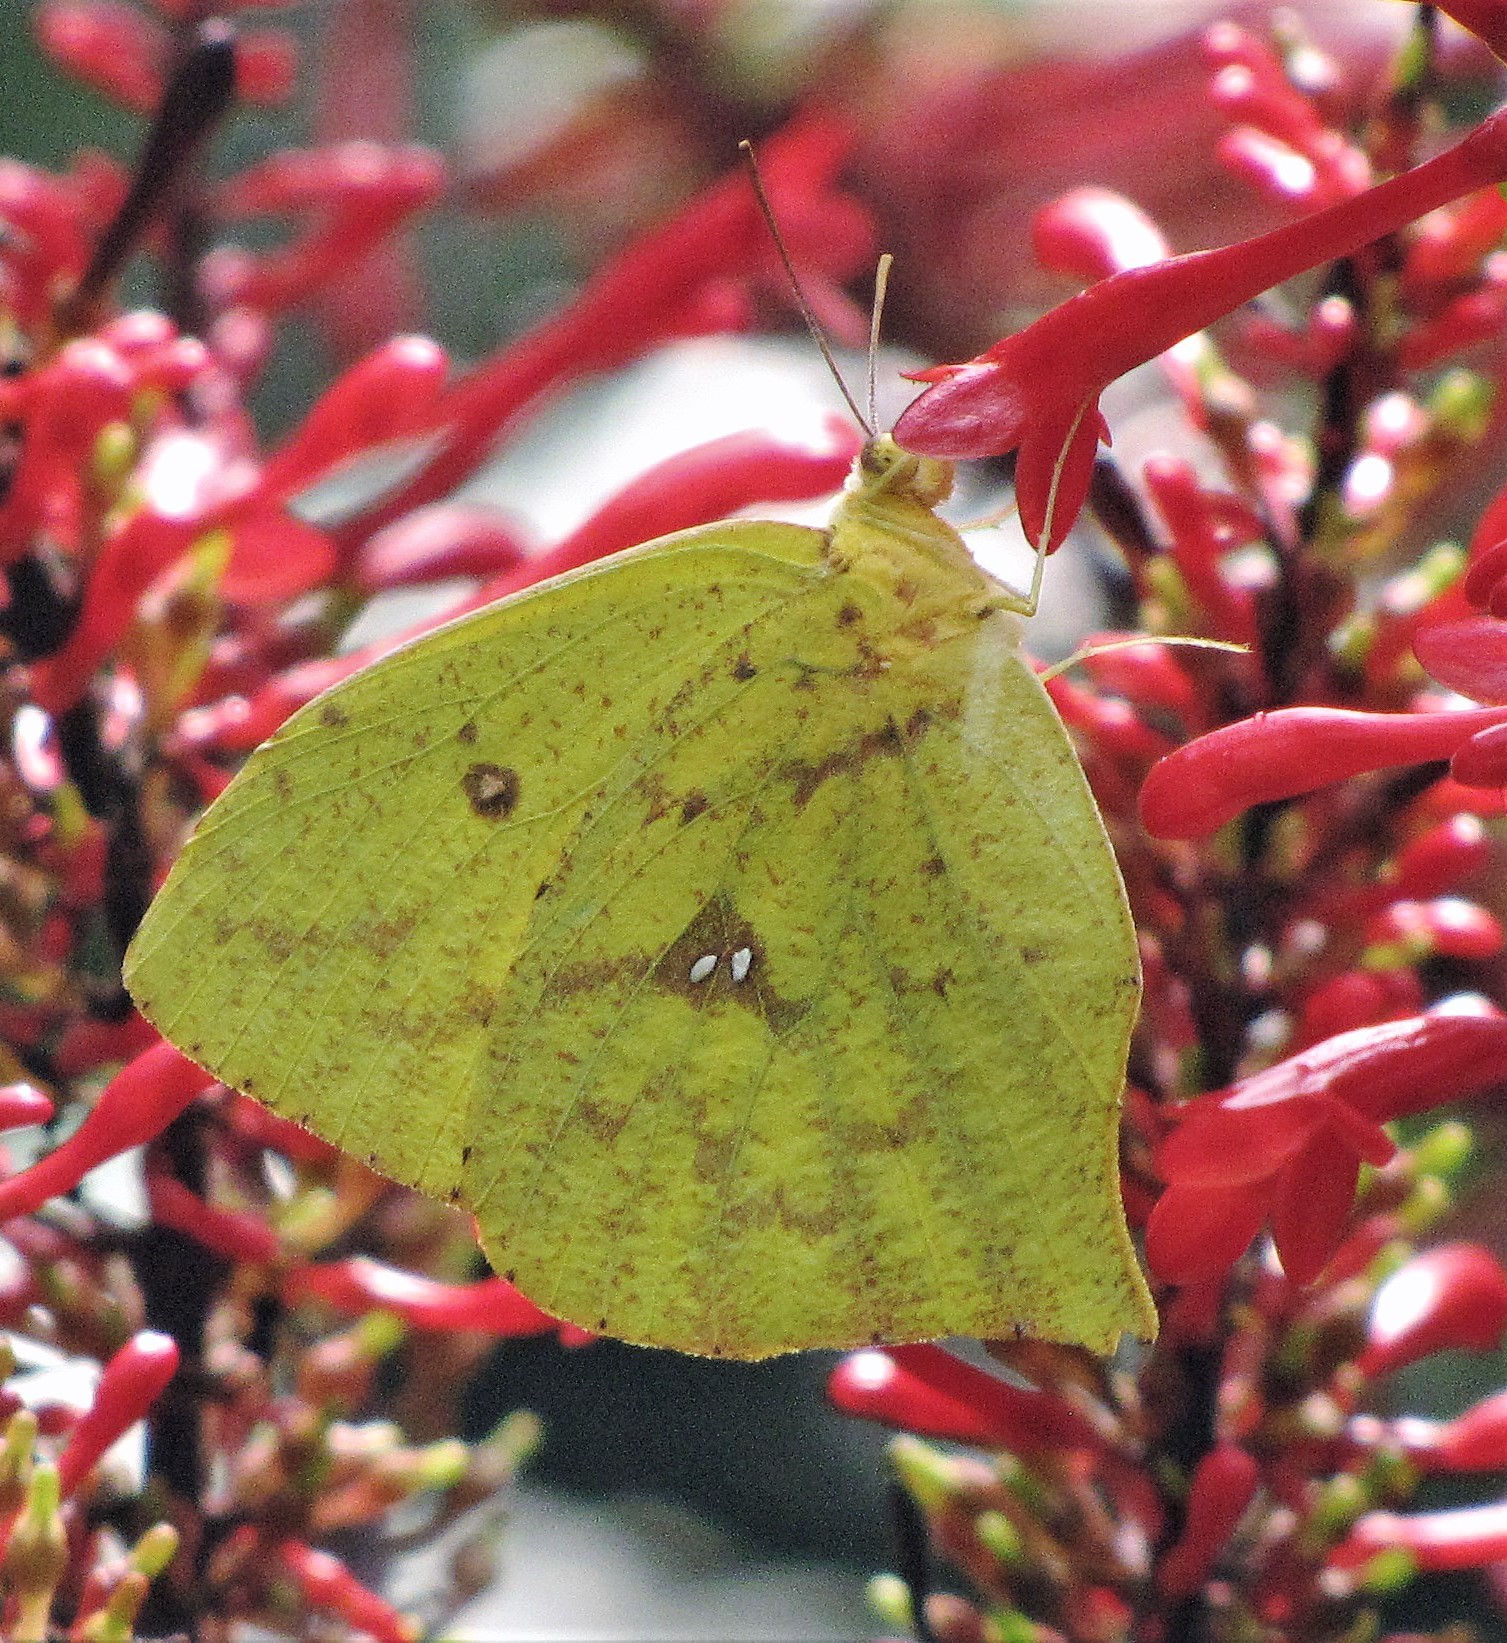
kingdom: Animalia
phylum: Arthropoda
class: Insecta
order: Lepidoptera
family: Pieridae
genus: Phoebis
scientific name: Phoebis neocypris
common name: Tailed sulphur
